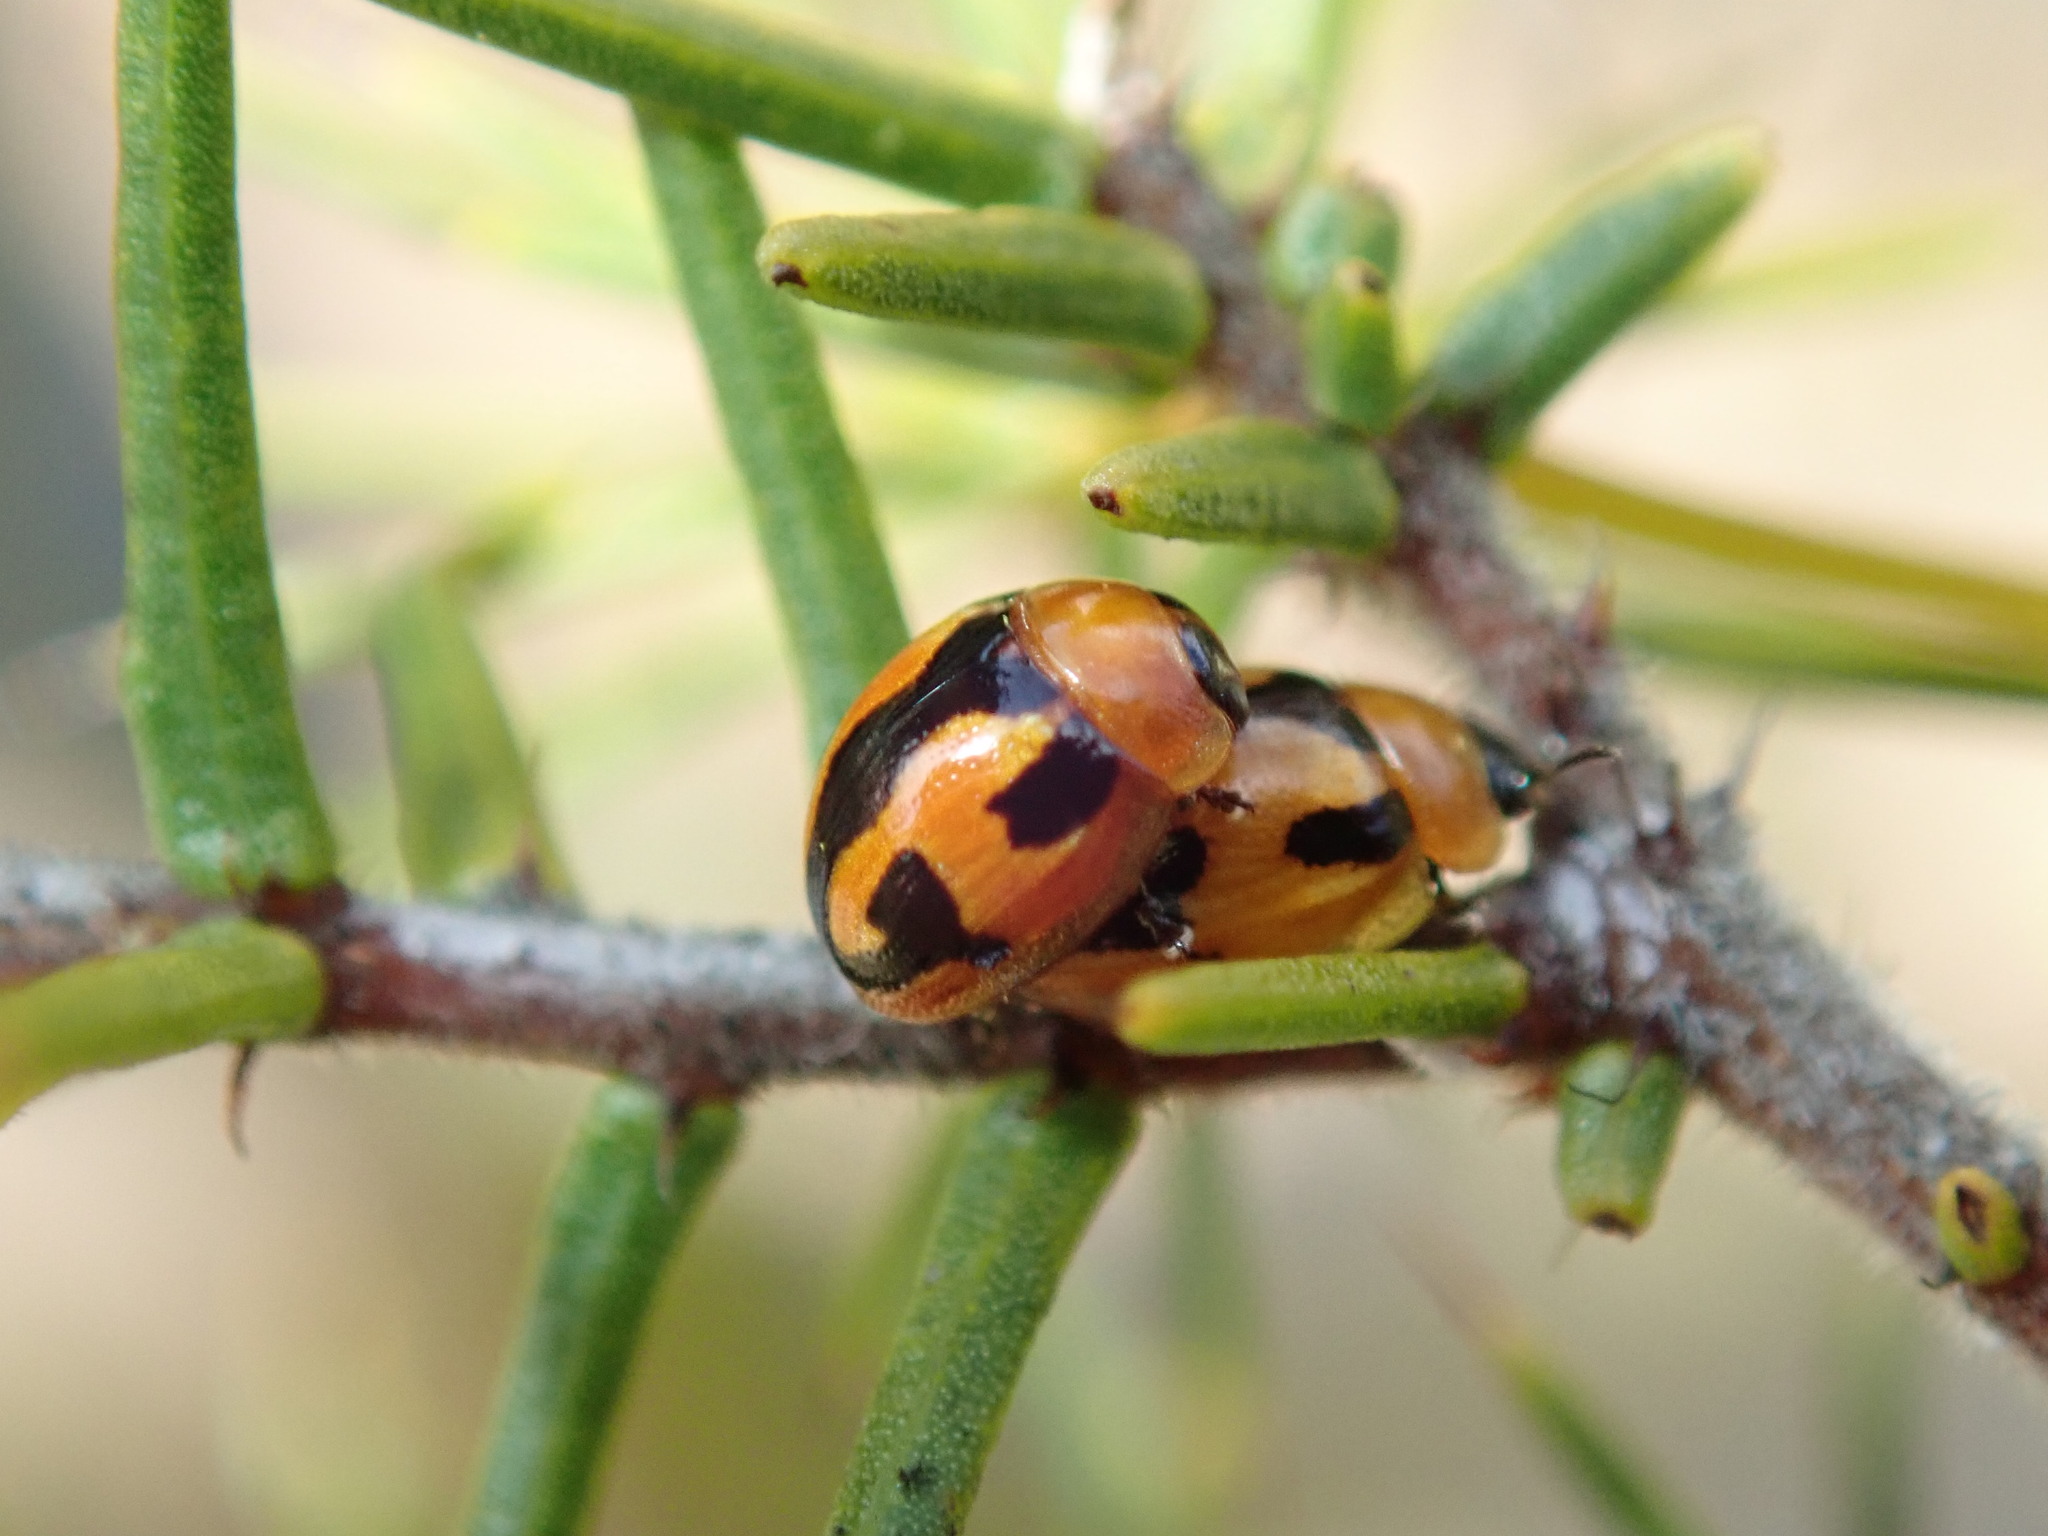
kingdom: Animalia
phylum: Arthropoda
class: Insecta
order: Coleoptera
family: Chrysomelidae
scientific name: Chrysomelidae
